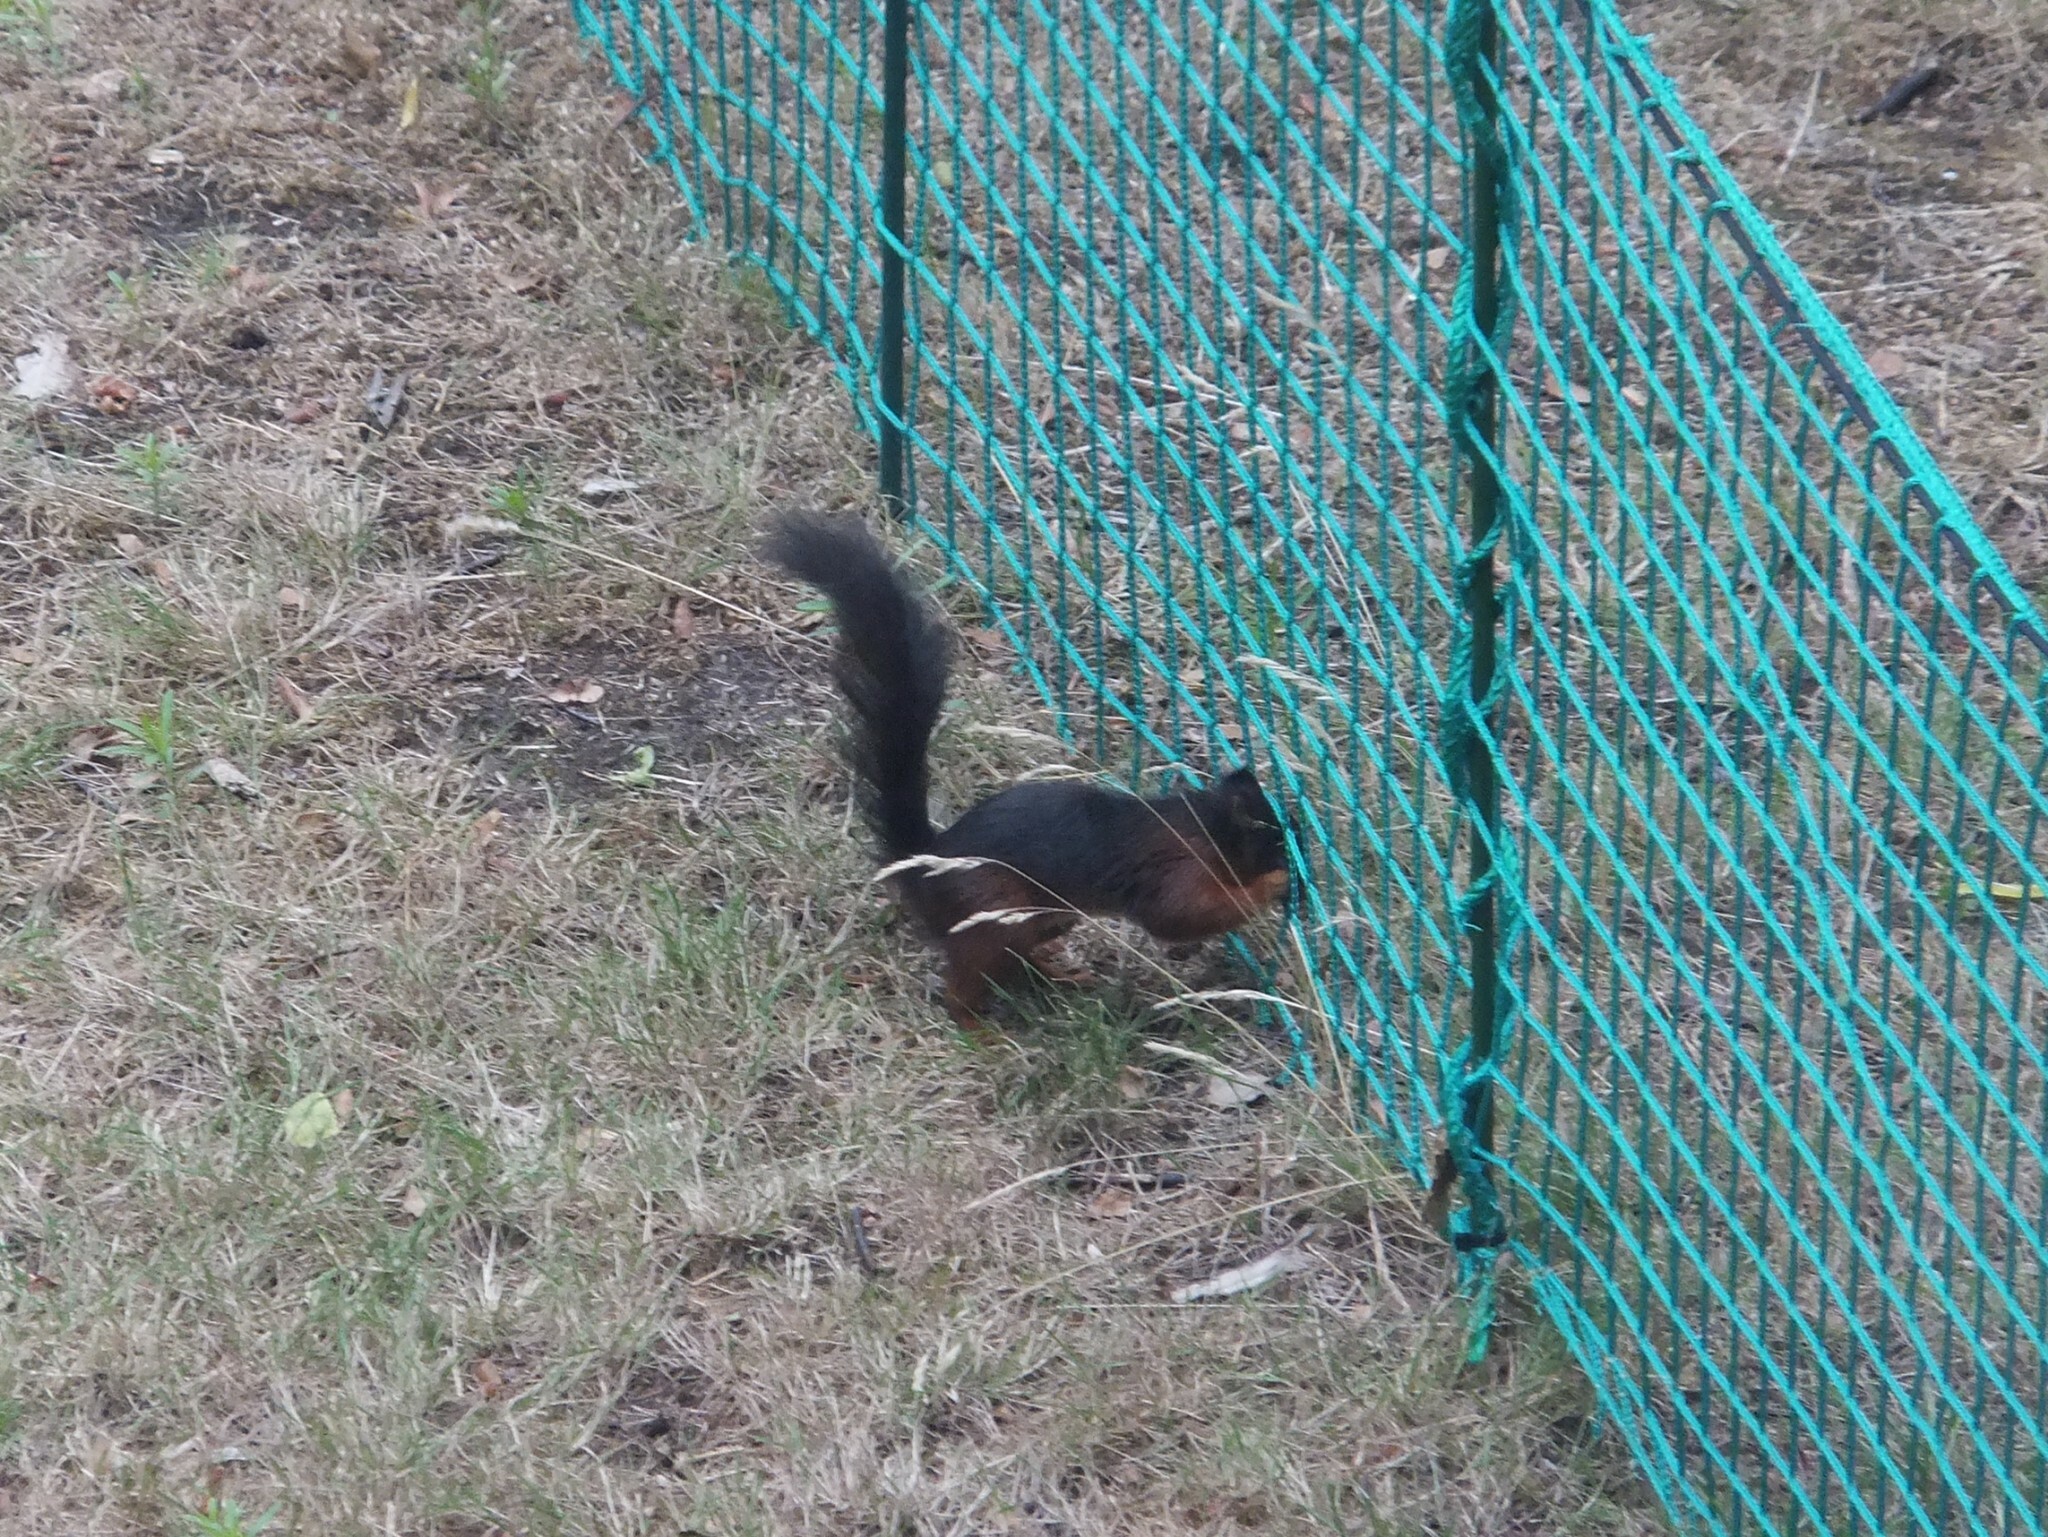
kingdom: Animalia
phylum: Chordata
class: Mammalia
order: Rodentia
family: Sciuridae
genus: Sciurus
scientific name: Sciurus vulgaris
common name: Eurasian red squirrel
